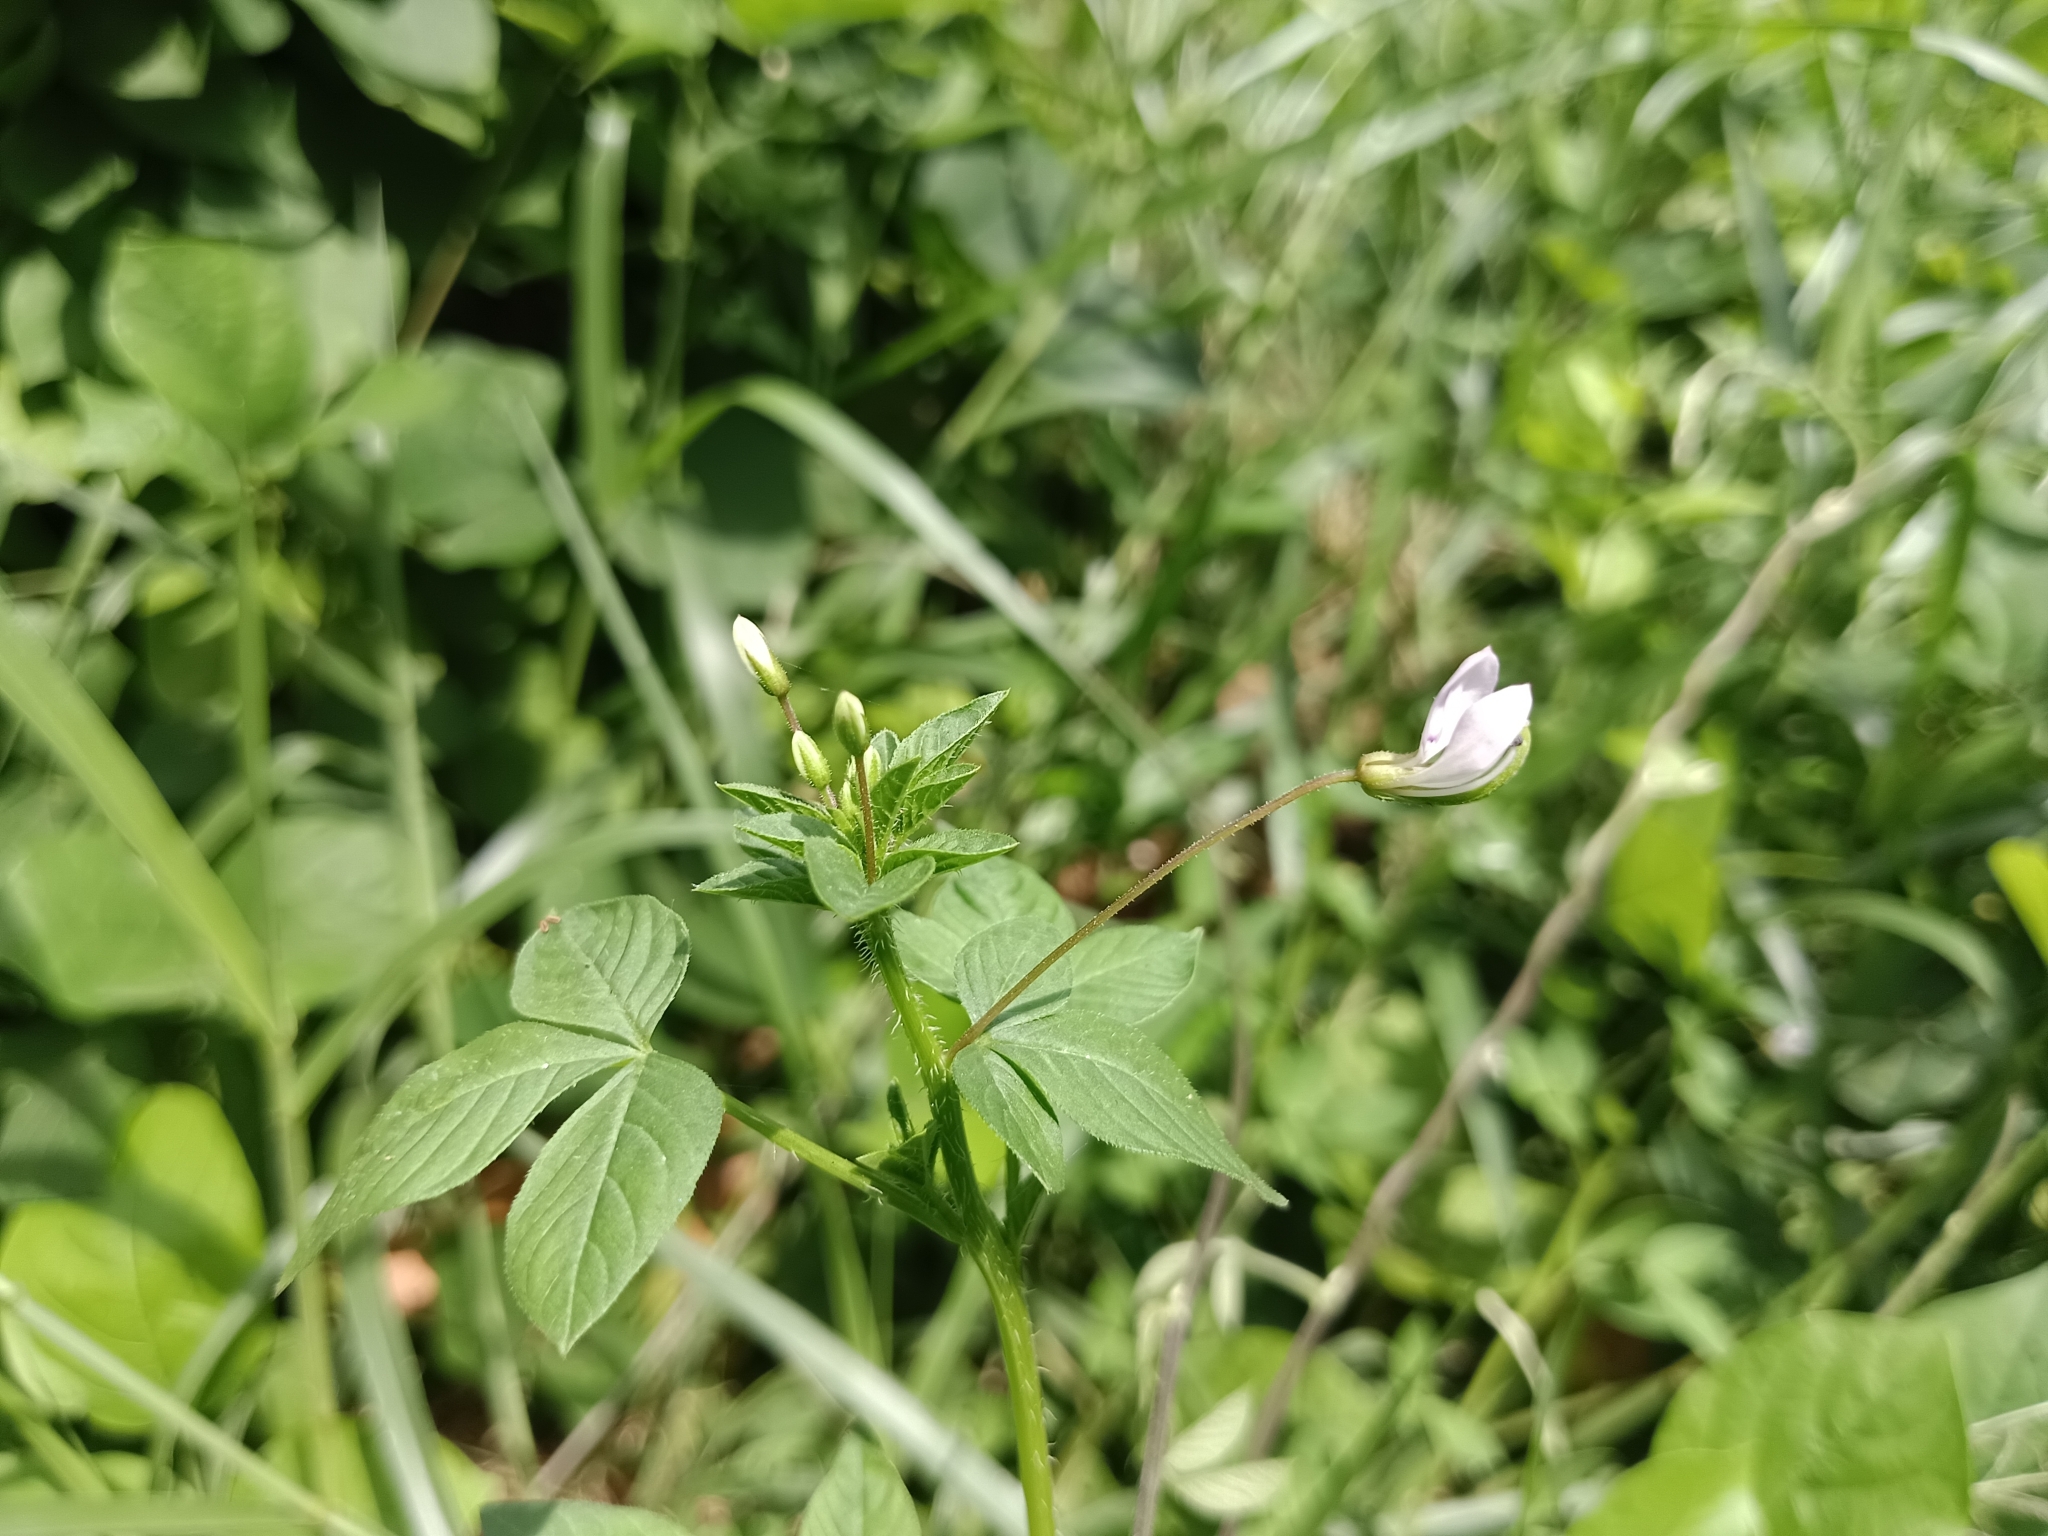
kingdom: Plantae
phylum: Tracheophyta
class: Magnoliopsida
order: Brassicales
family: Cleomaceae
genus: Sieruela
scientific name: Sieruela rutidosperma
